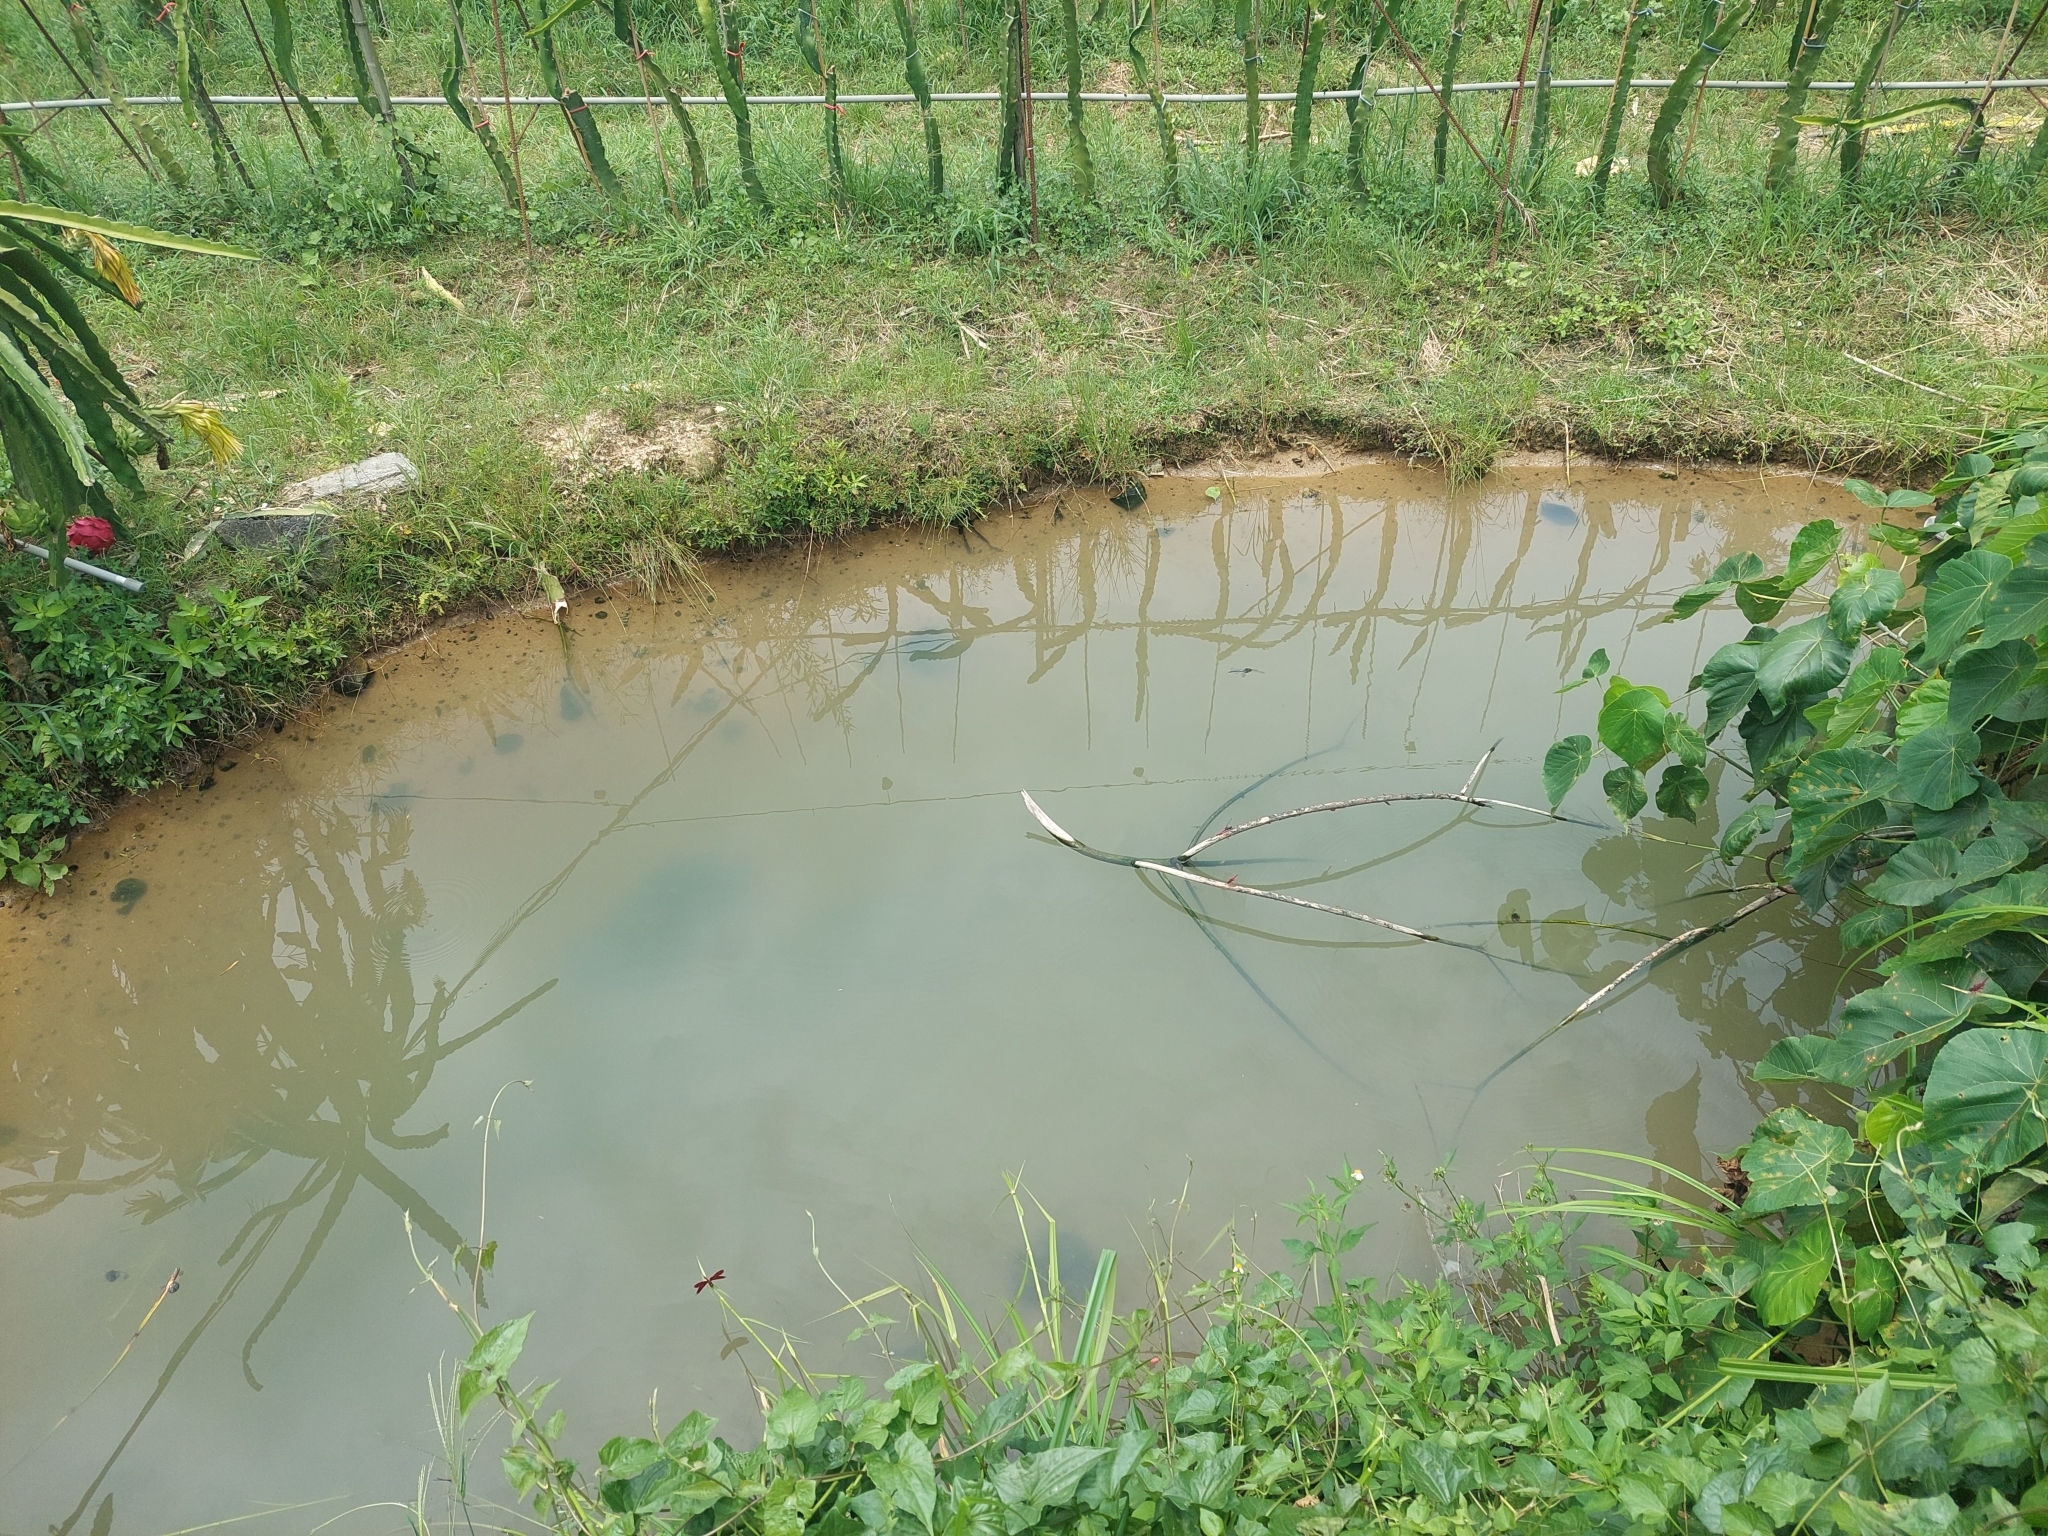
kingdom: Animalia
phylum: Arthropoda
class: Insecta
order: Odonata
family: Libellulidae
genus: Potamarcha
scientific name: Potamarcha congener
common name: Blue chaser
